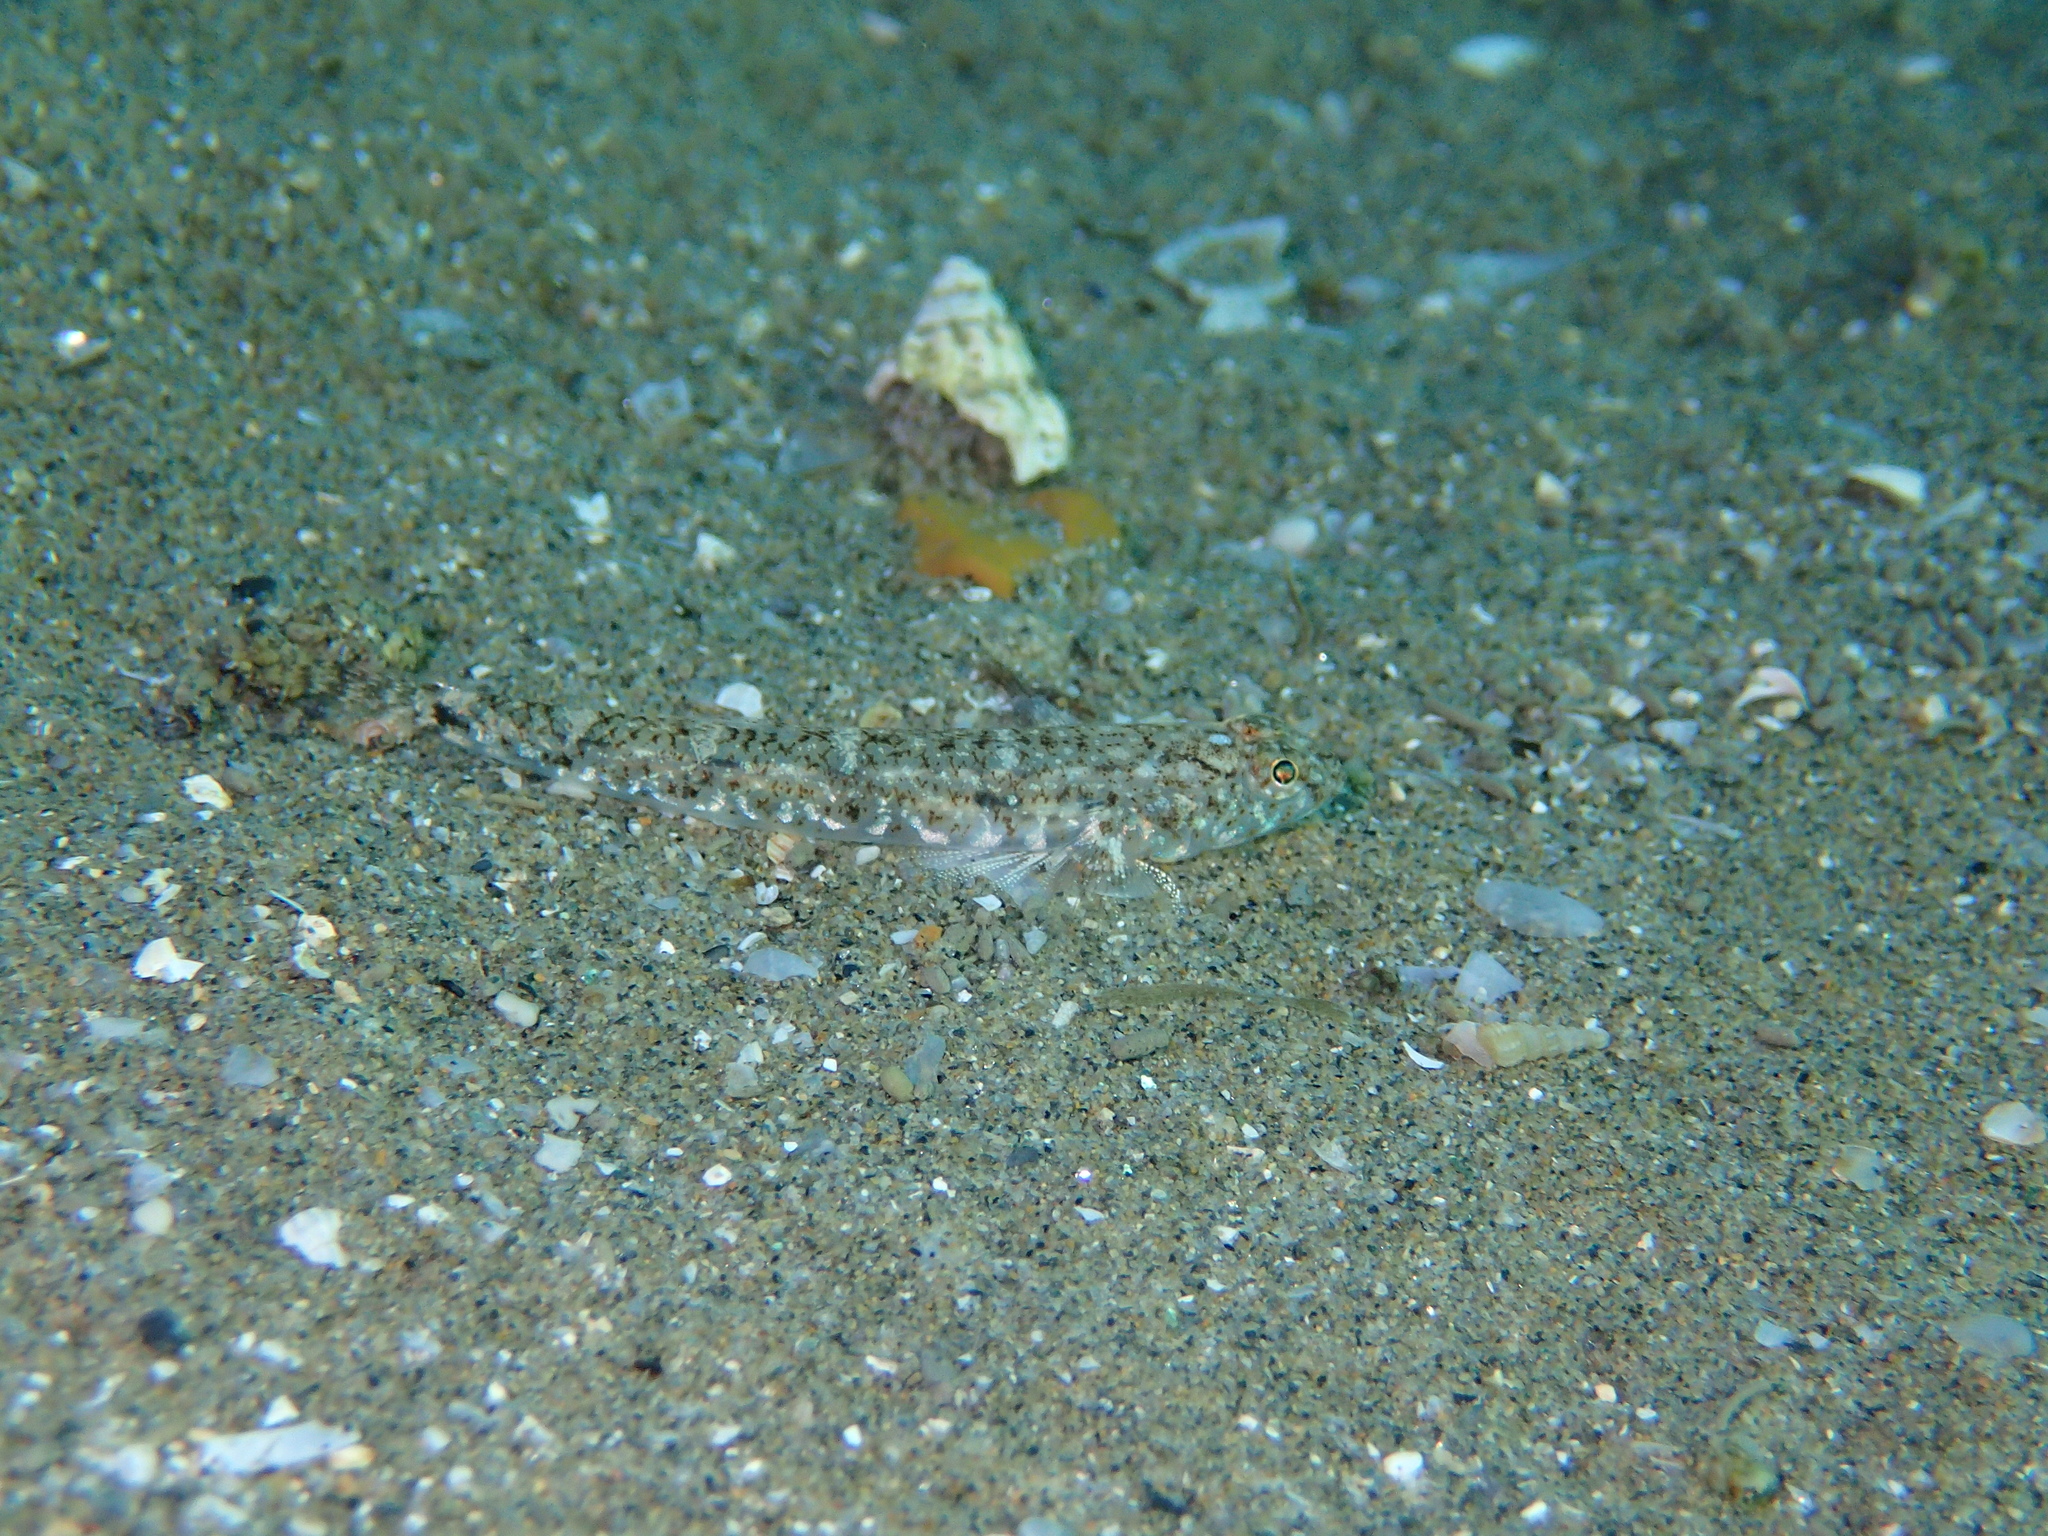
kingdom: Animalia
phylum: Chordata
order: Perciformes
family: Gobiidae
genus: Pomatoschistus
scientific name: Pomatoschistus marmoratus
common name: Marbled goby
